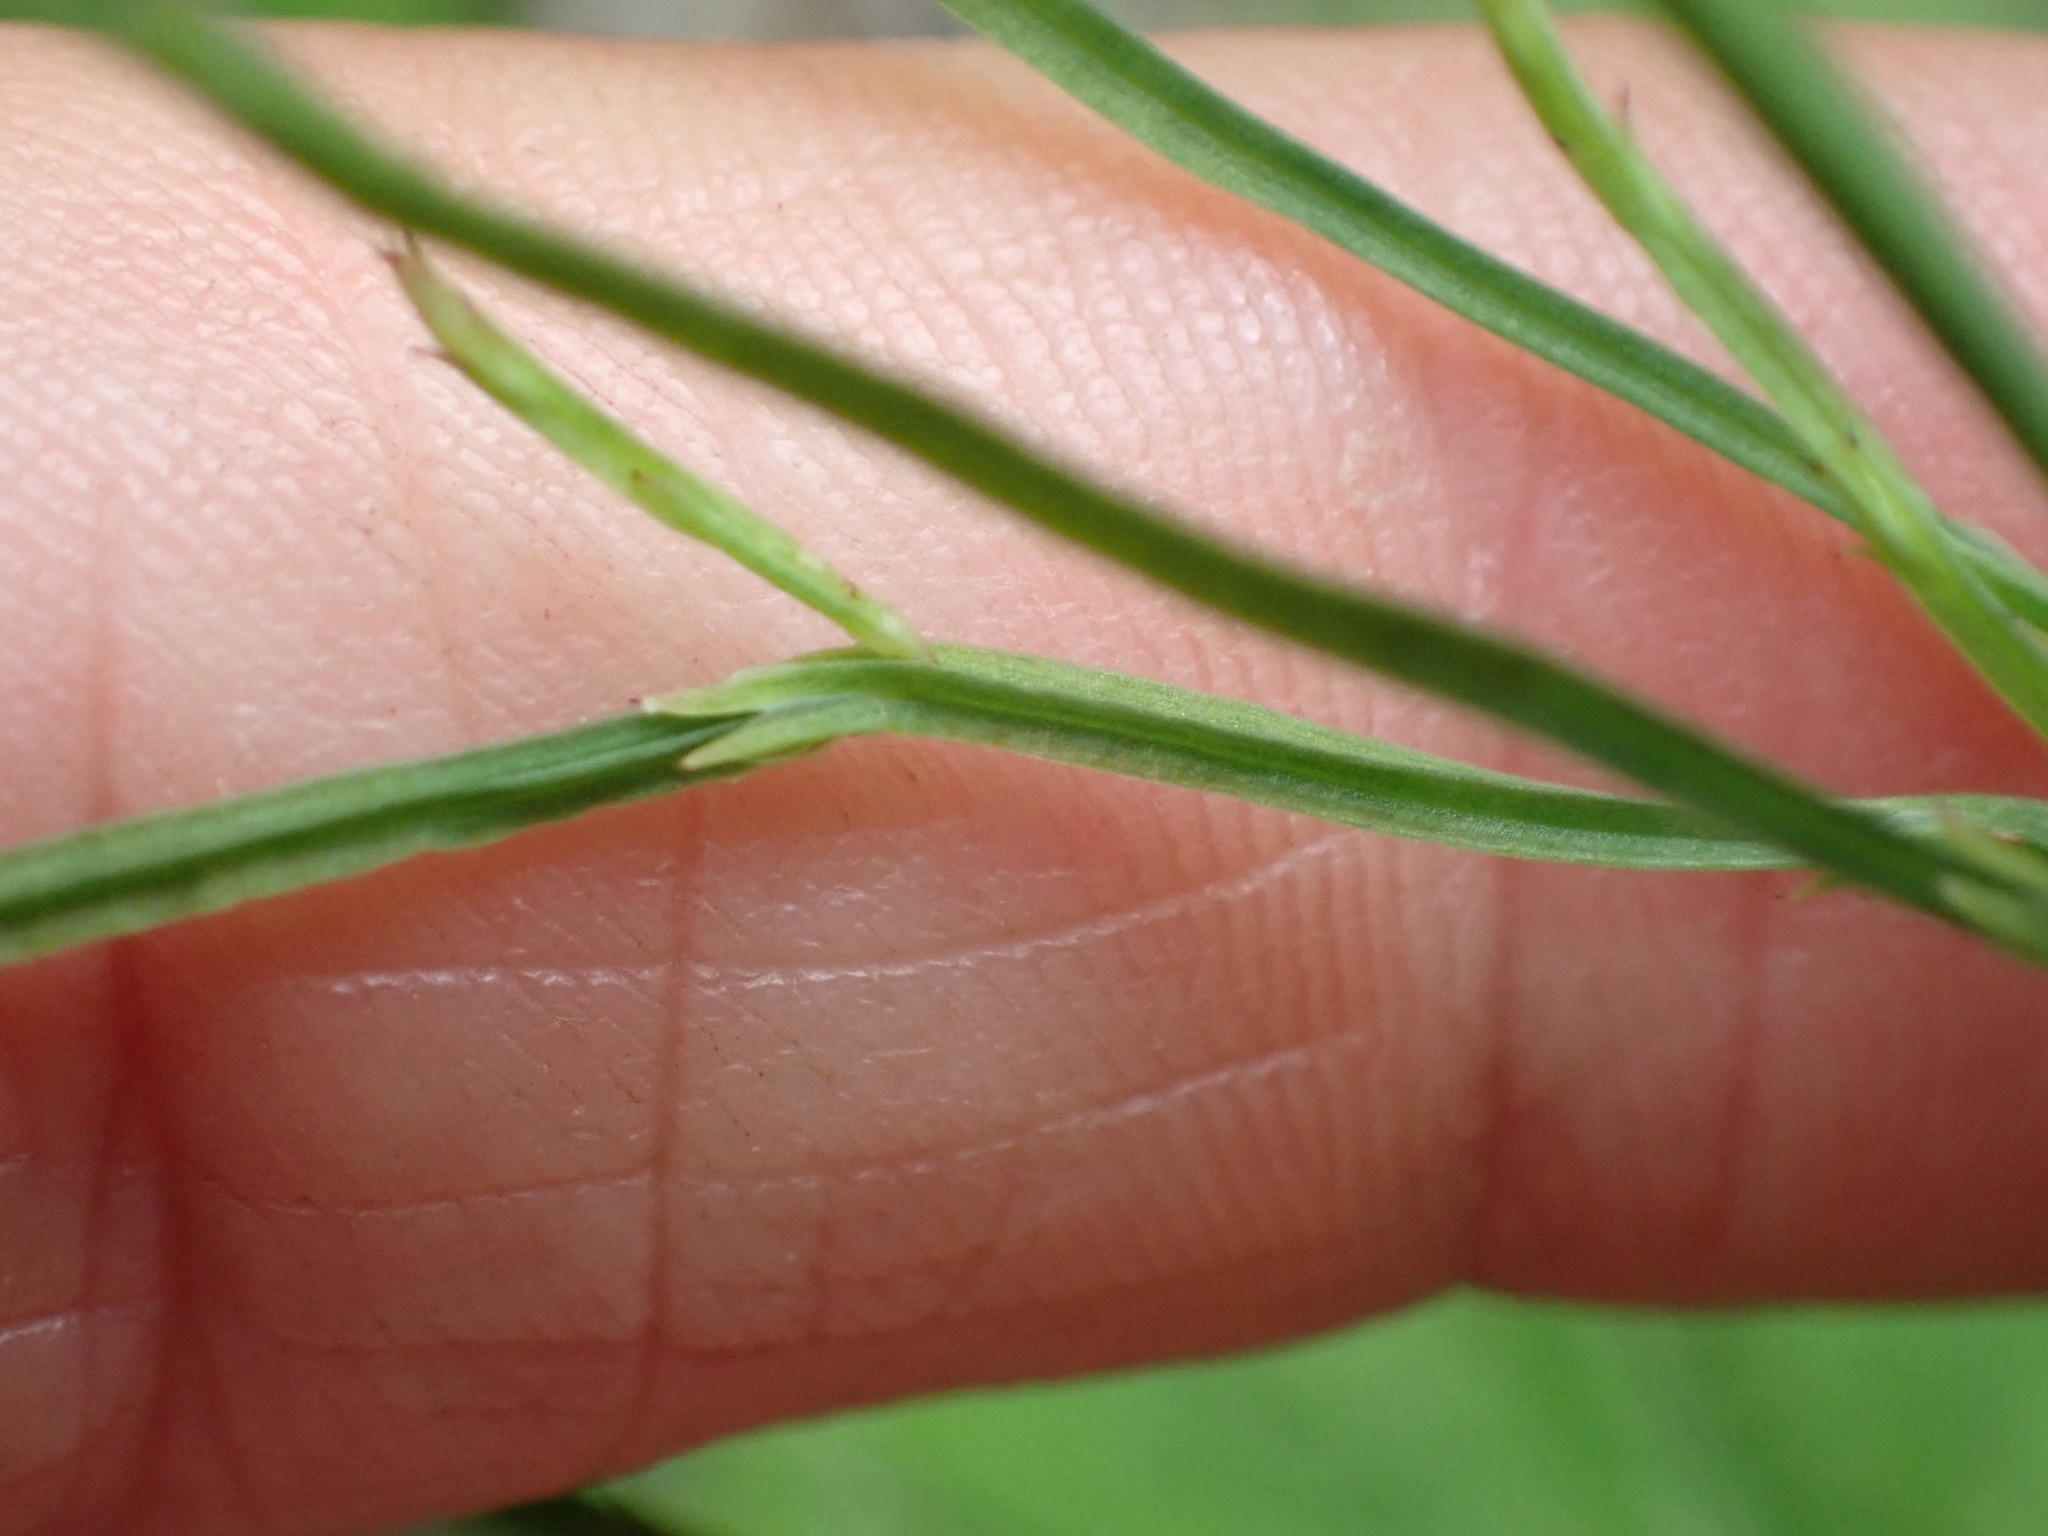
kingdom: Plantae
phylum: Tracheophyta
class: Polypodiopsida
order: Equisetales
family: Equisetaceae
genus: Equisetum
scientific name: Equisetum sylvaticum
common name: Wood horsetail
